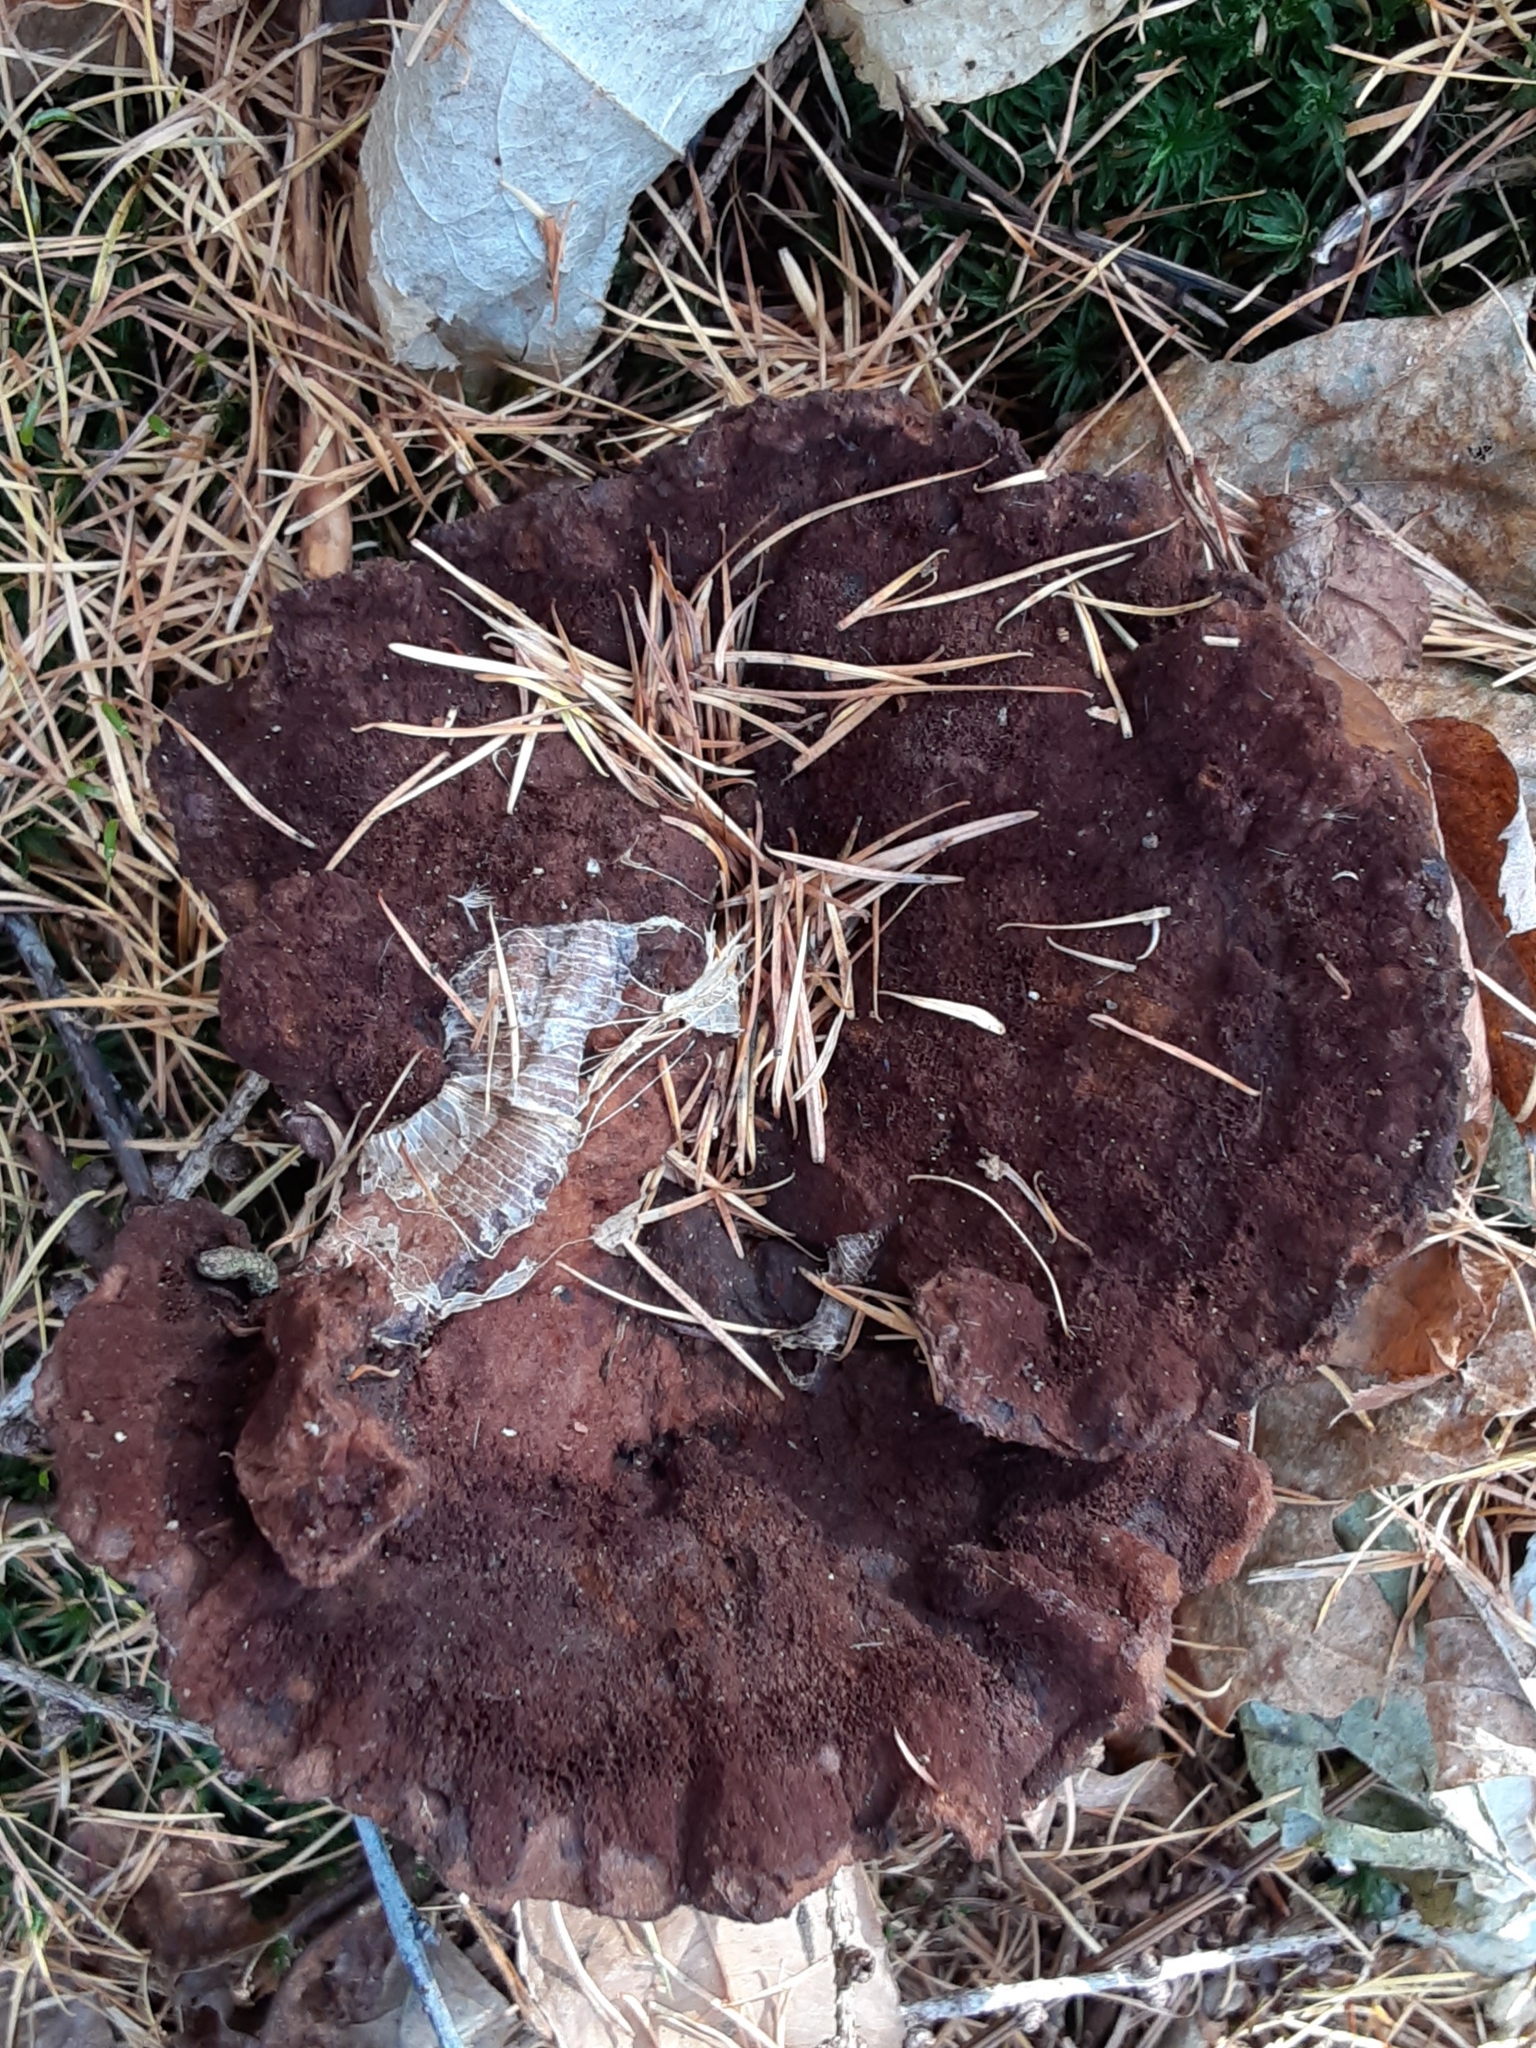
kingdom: Fungi
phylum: Basidiomycota
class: Agaricomycetes
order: Polyporales
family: Laetiporaceae
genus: Phaeolus
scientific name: Phaeolus schweinitzii
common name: Dyer's mazegill
